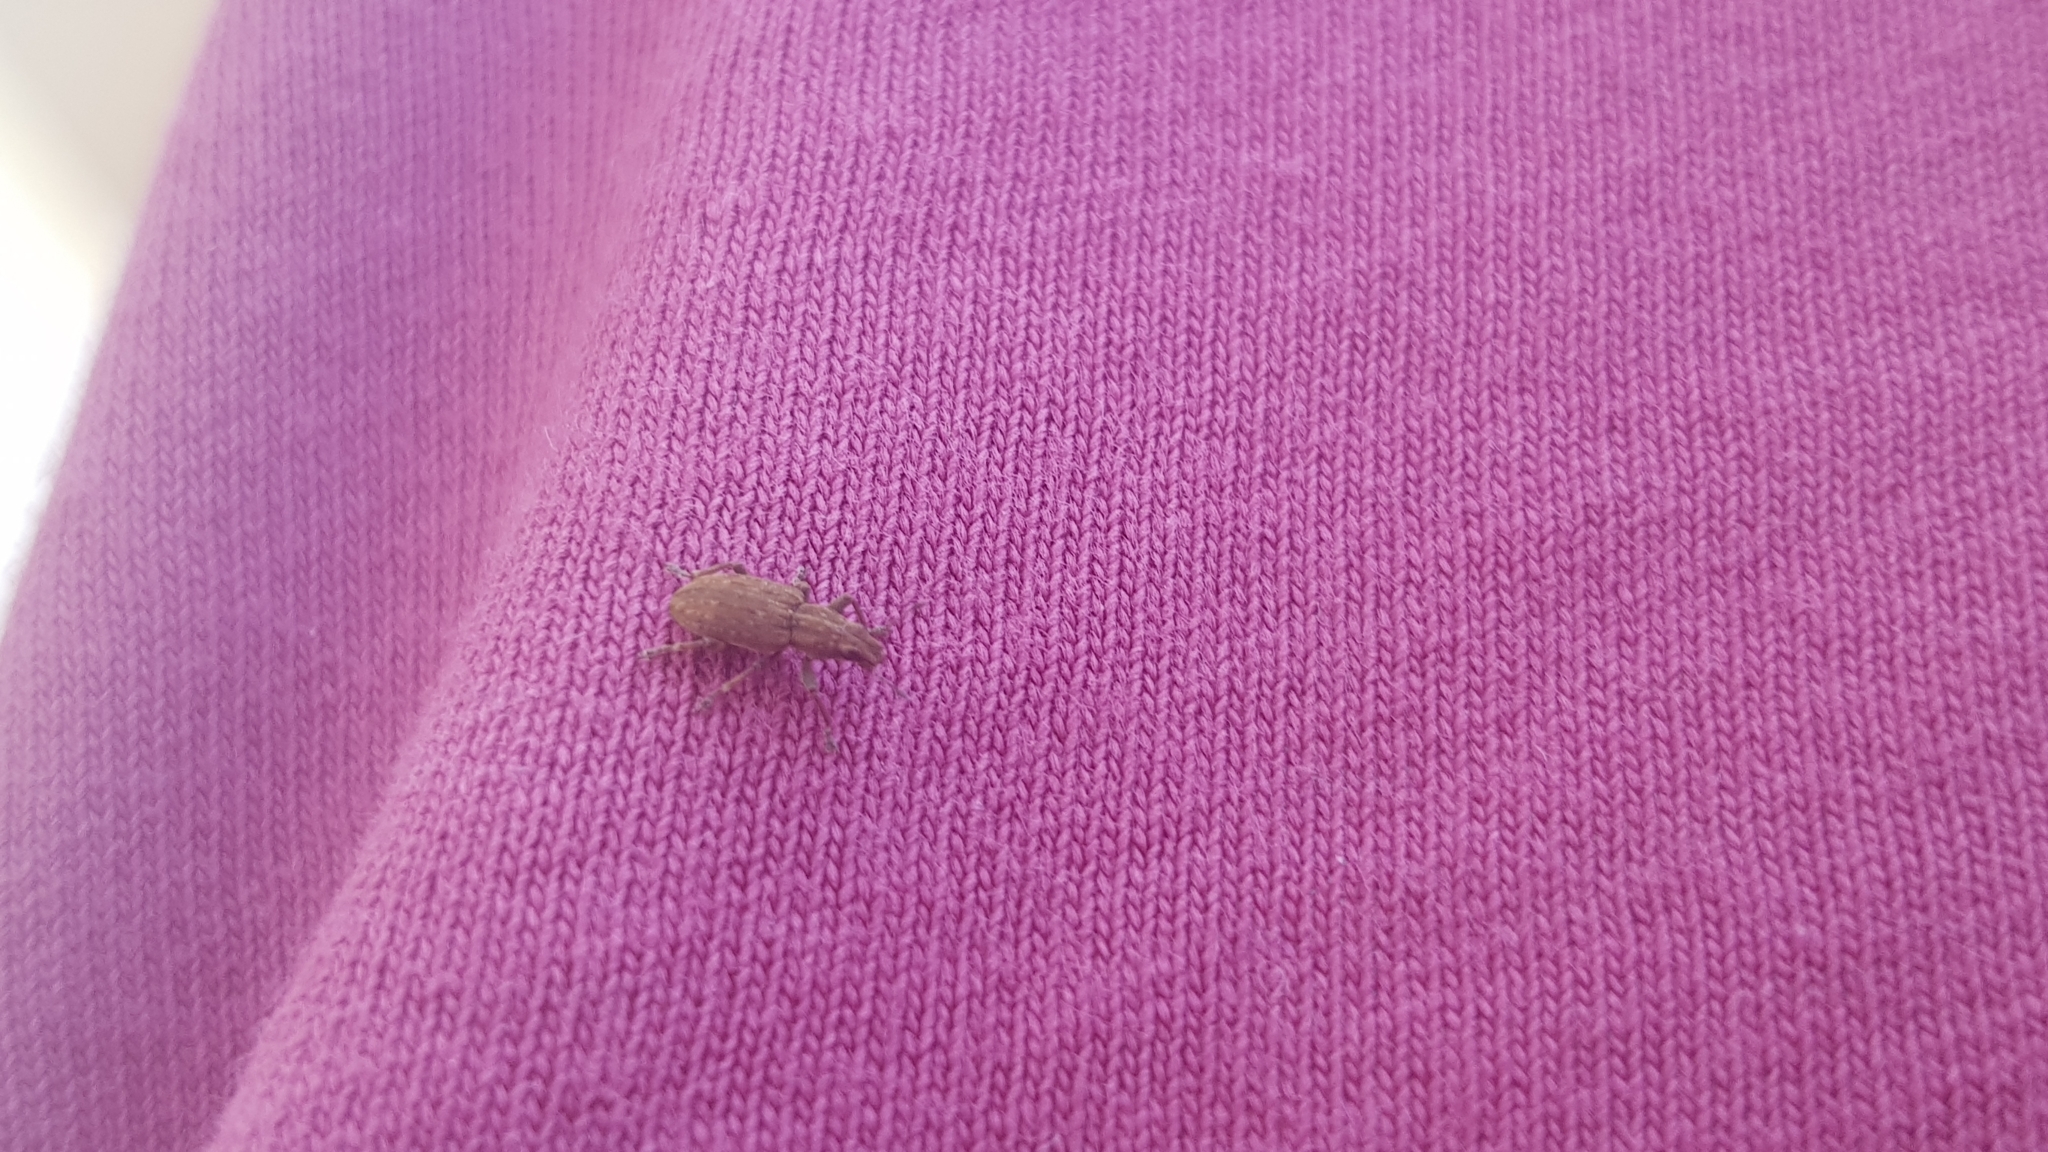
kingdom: Animalia
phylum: Arthropoda
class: Insecta
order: Coleoptera
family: Curculionidae
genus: Sitona
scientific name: Sitona obsoletus
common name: Weevil
